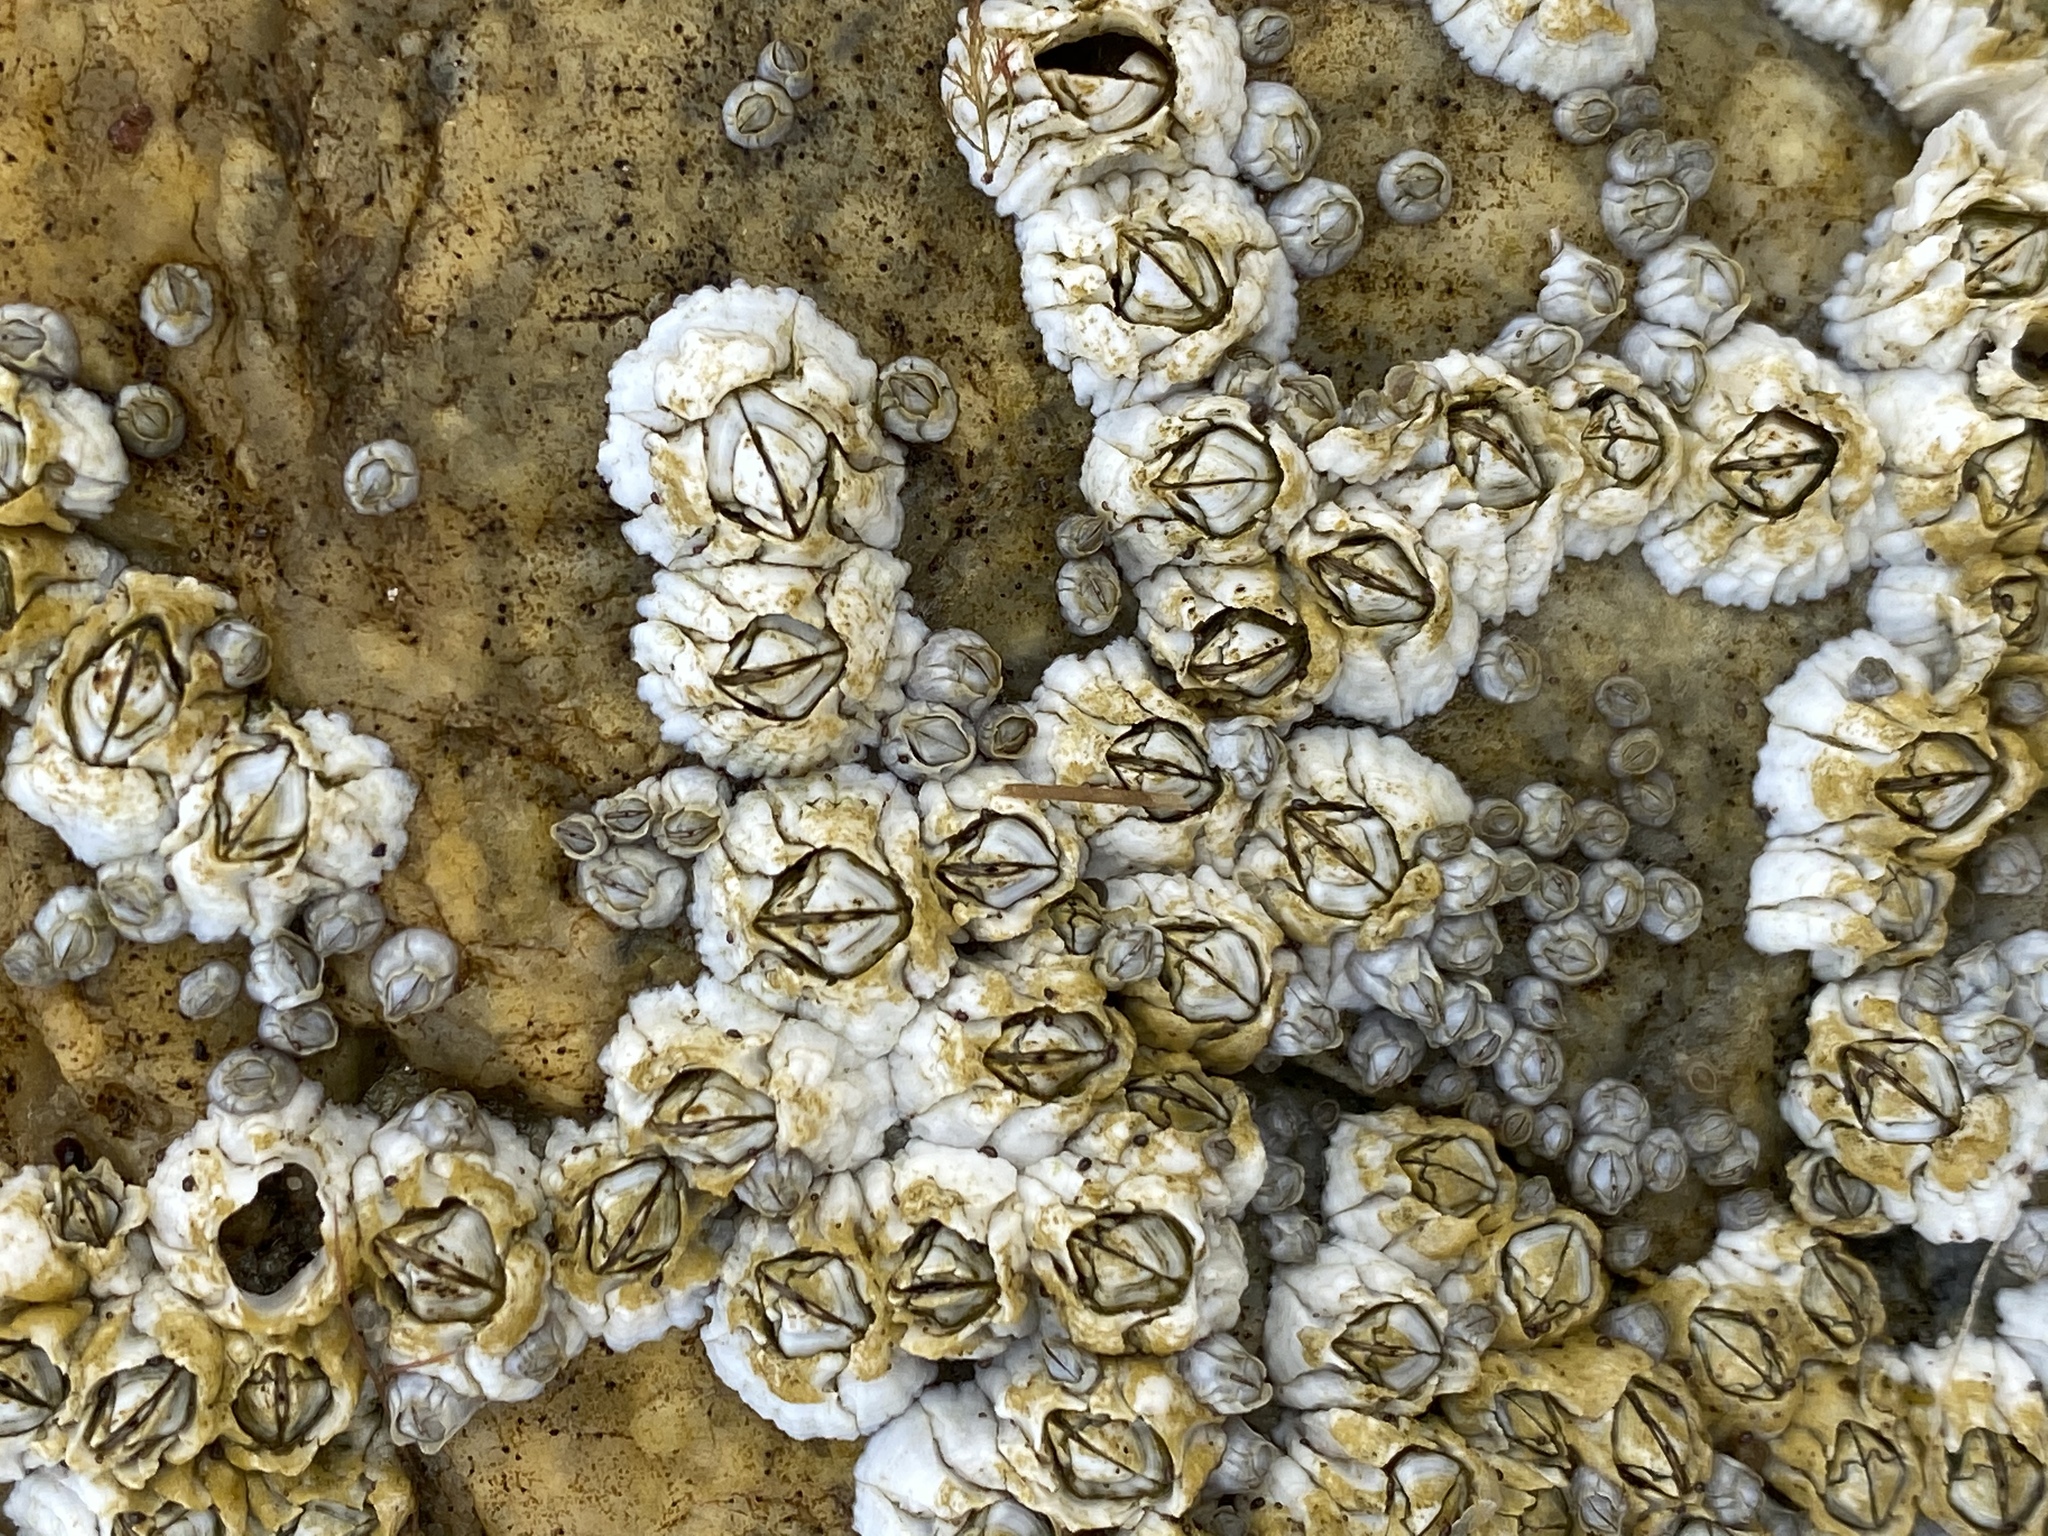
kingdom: Animalia
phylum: Arthropoda
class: Maxillopoda
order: Sessilia
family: Archaeobalanidae
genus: Semibalanus
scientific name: Semibalanus balanoides
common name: Acorn barnacle
